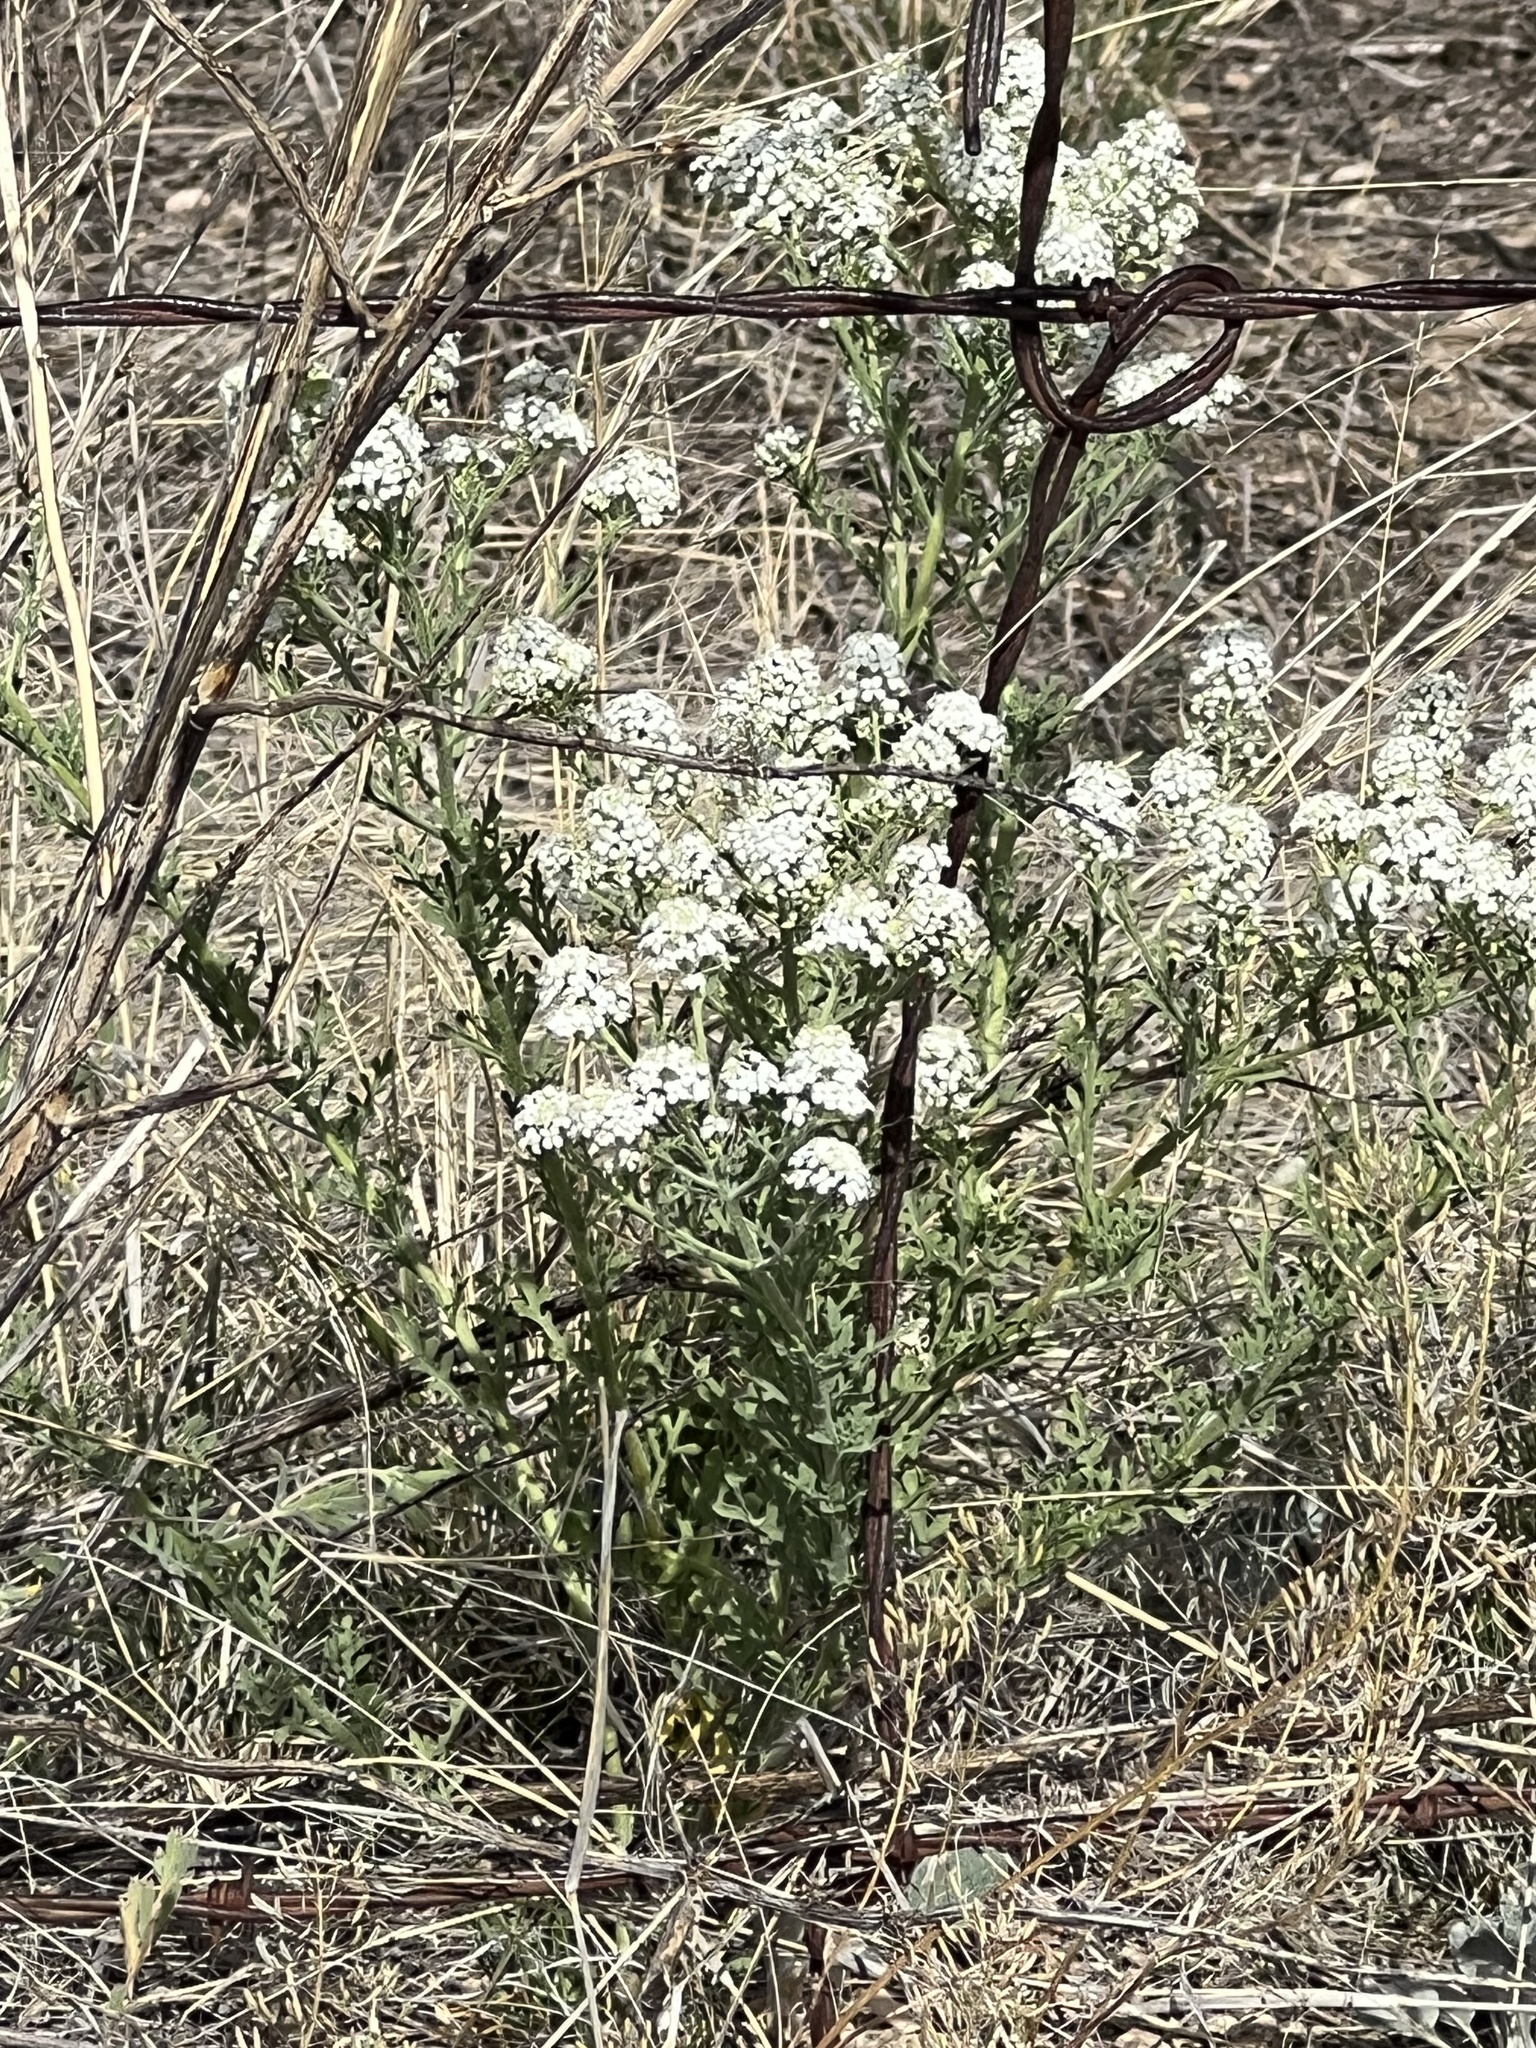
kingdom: Plantae
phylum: Tracheophyta
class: Magnoliopsida
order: Brassicales
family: Brassicaceae
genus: Lepidium
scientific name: Lepidium thurberi
